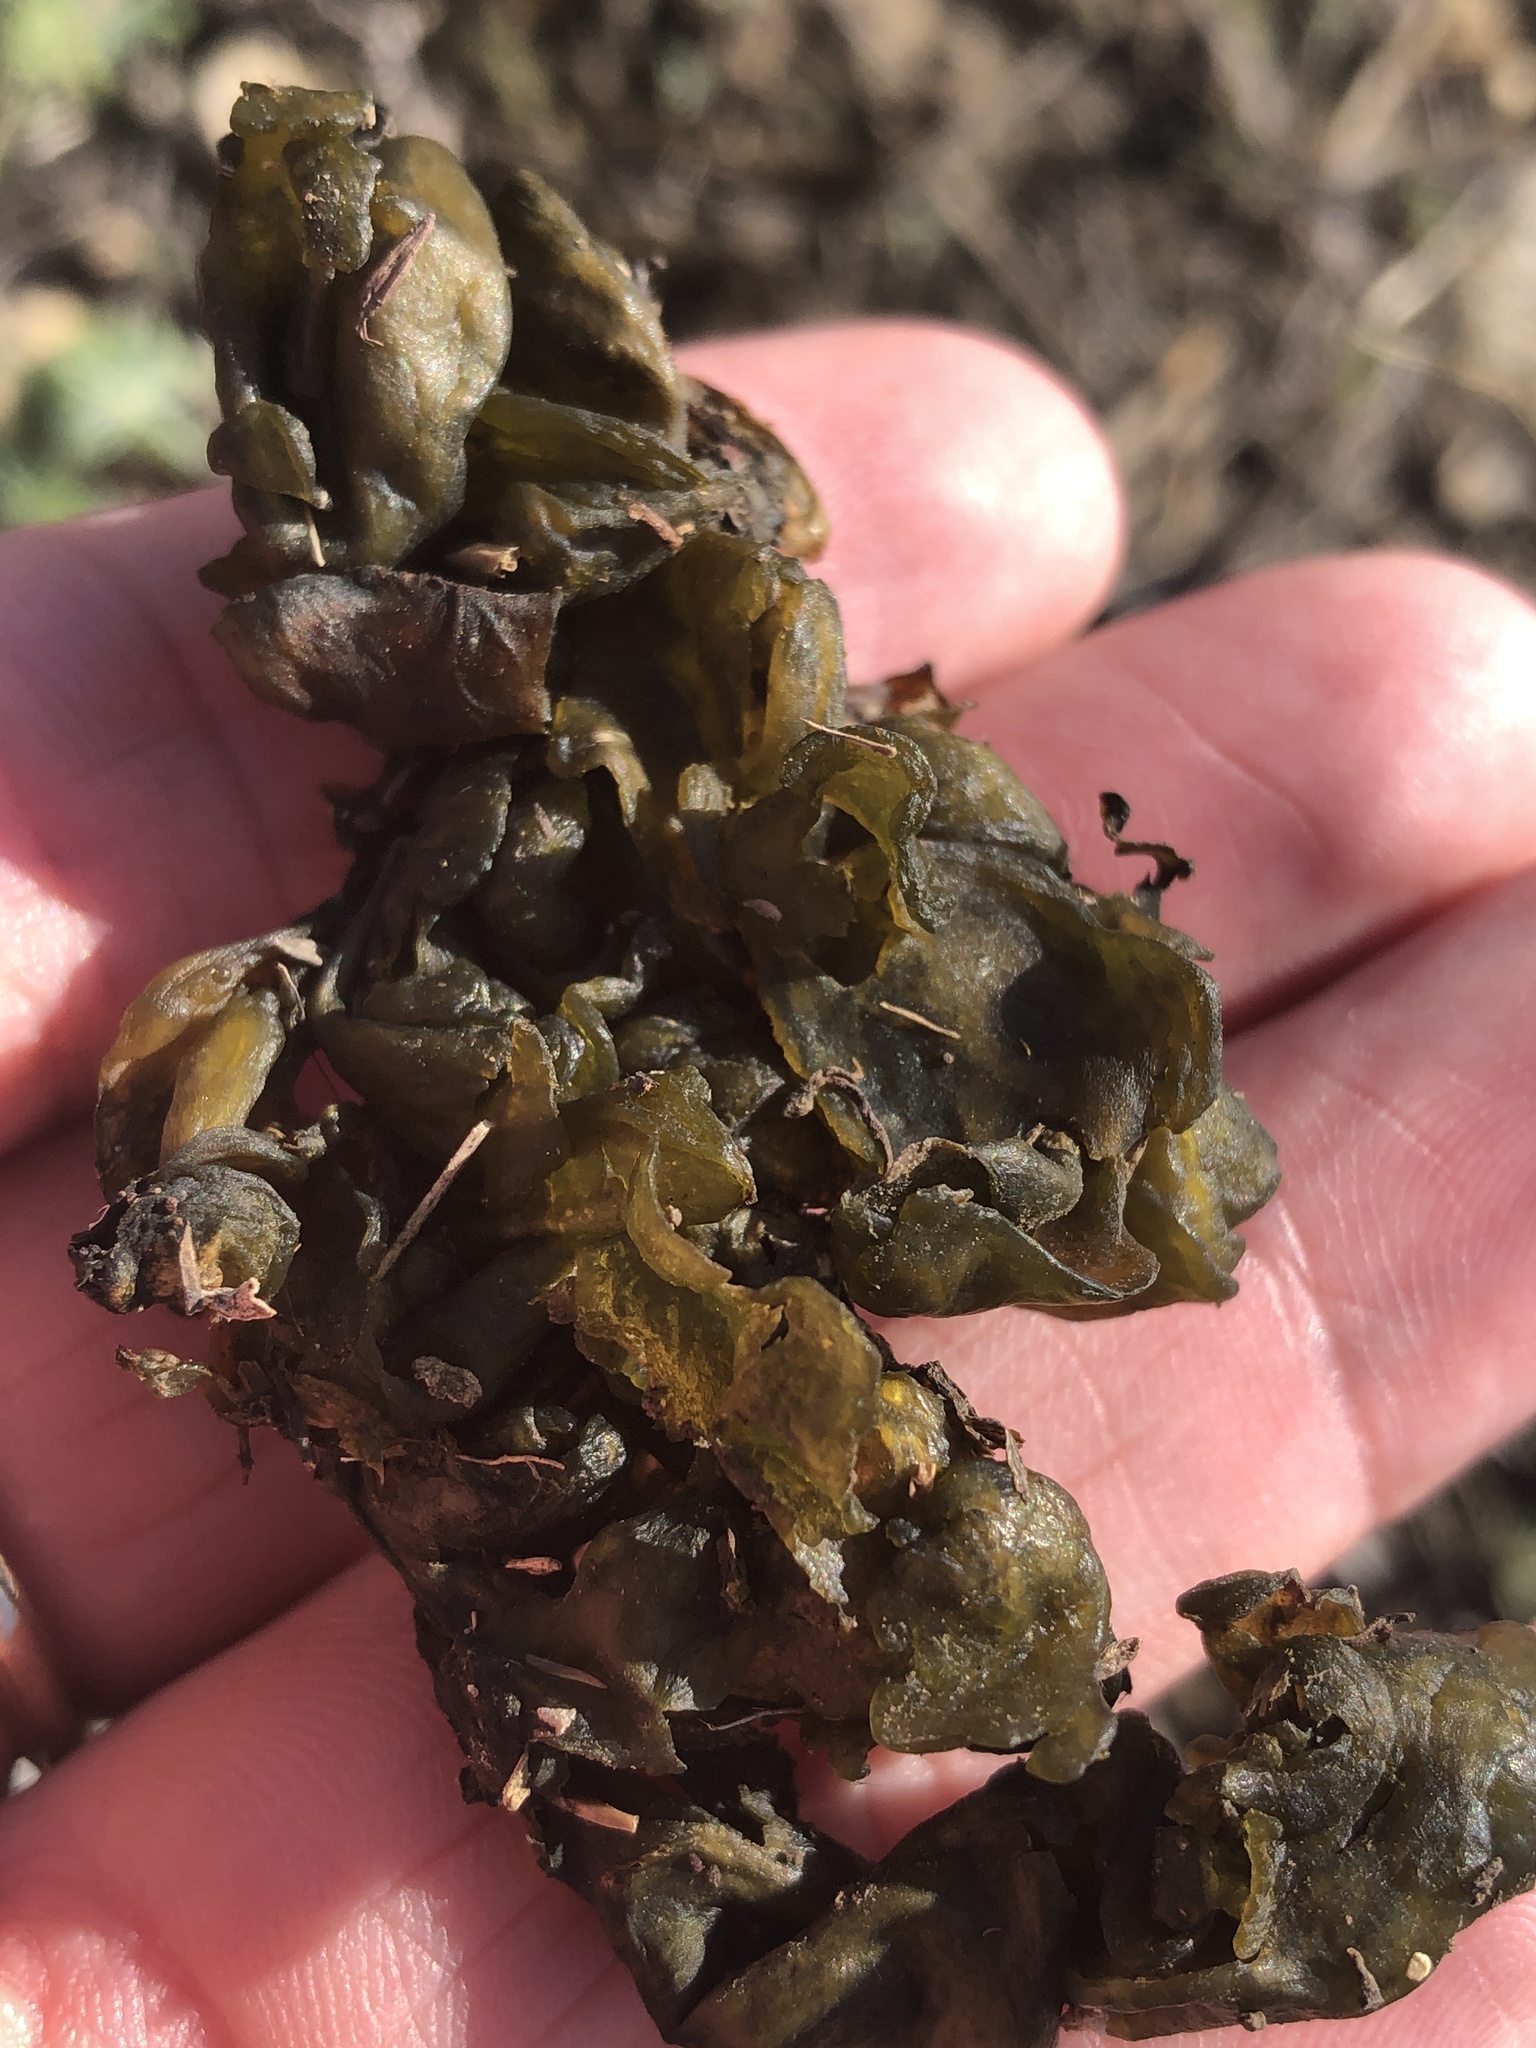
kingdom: Bacteria
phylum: Cyanobacteria
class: Cyanobacteriia
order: Cyanobacteriales
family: Nostocaceae
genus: Nostoc
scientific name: Nostoc commune
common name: Star jelly
